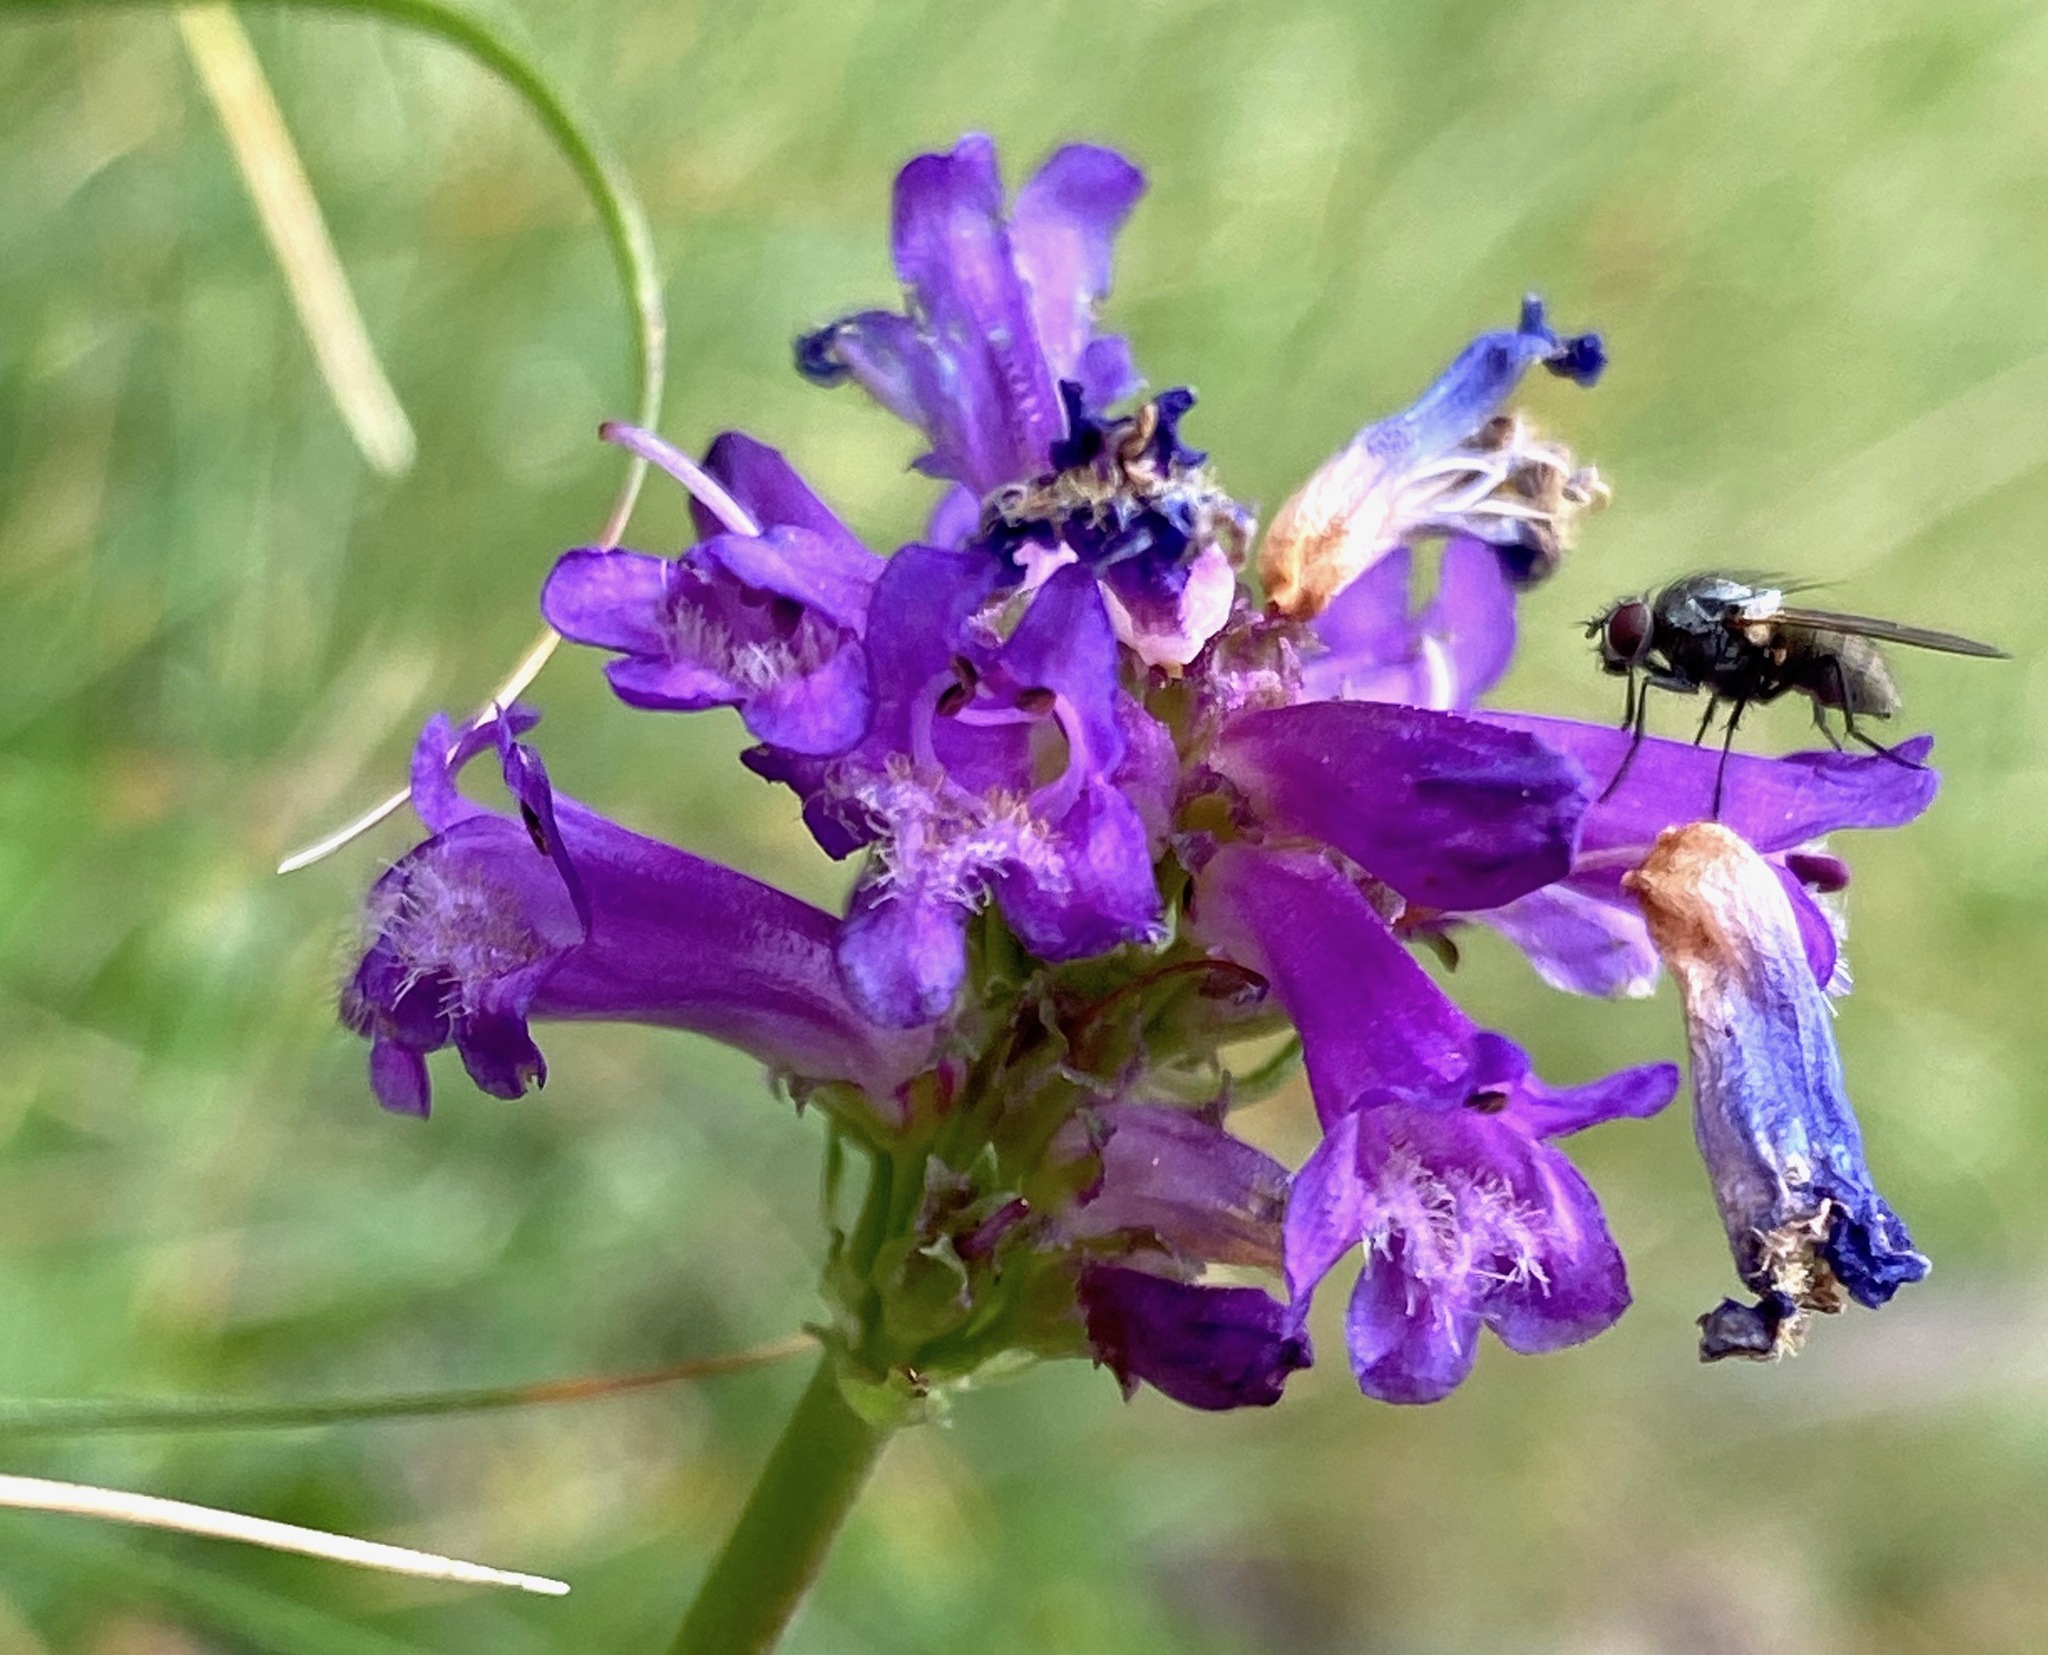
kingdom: Plantae
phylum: Tracheophyta
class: Magnoliopsida
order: Lamiales
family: Plantaginaceae
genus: Penstemon
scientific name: Penstemon rydbergii
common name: Rydberg's beardtongue
